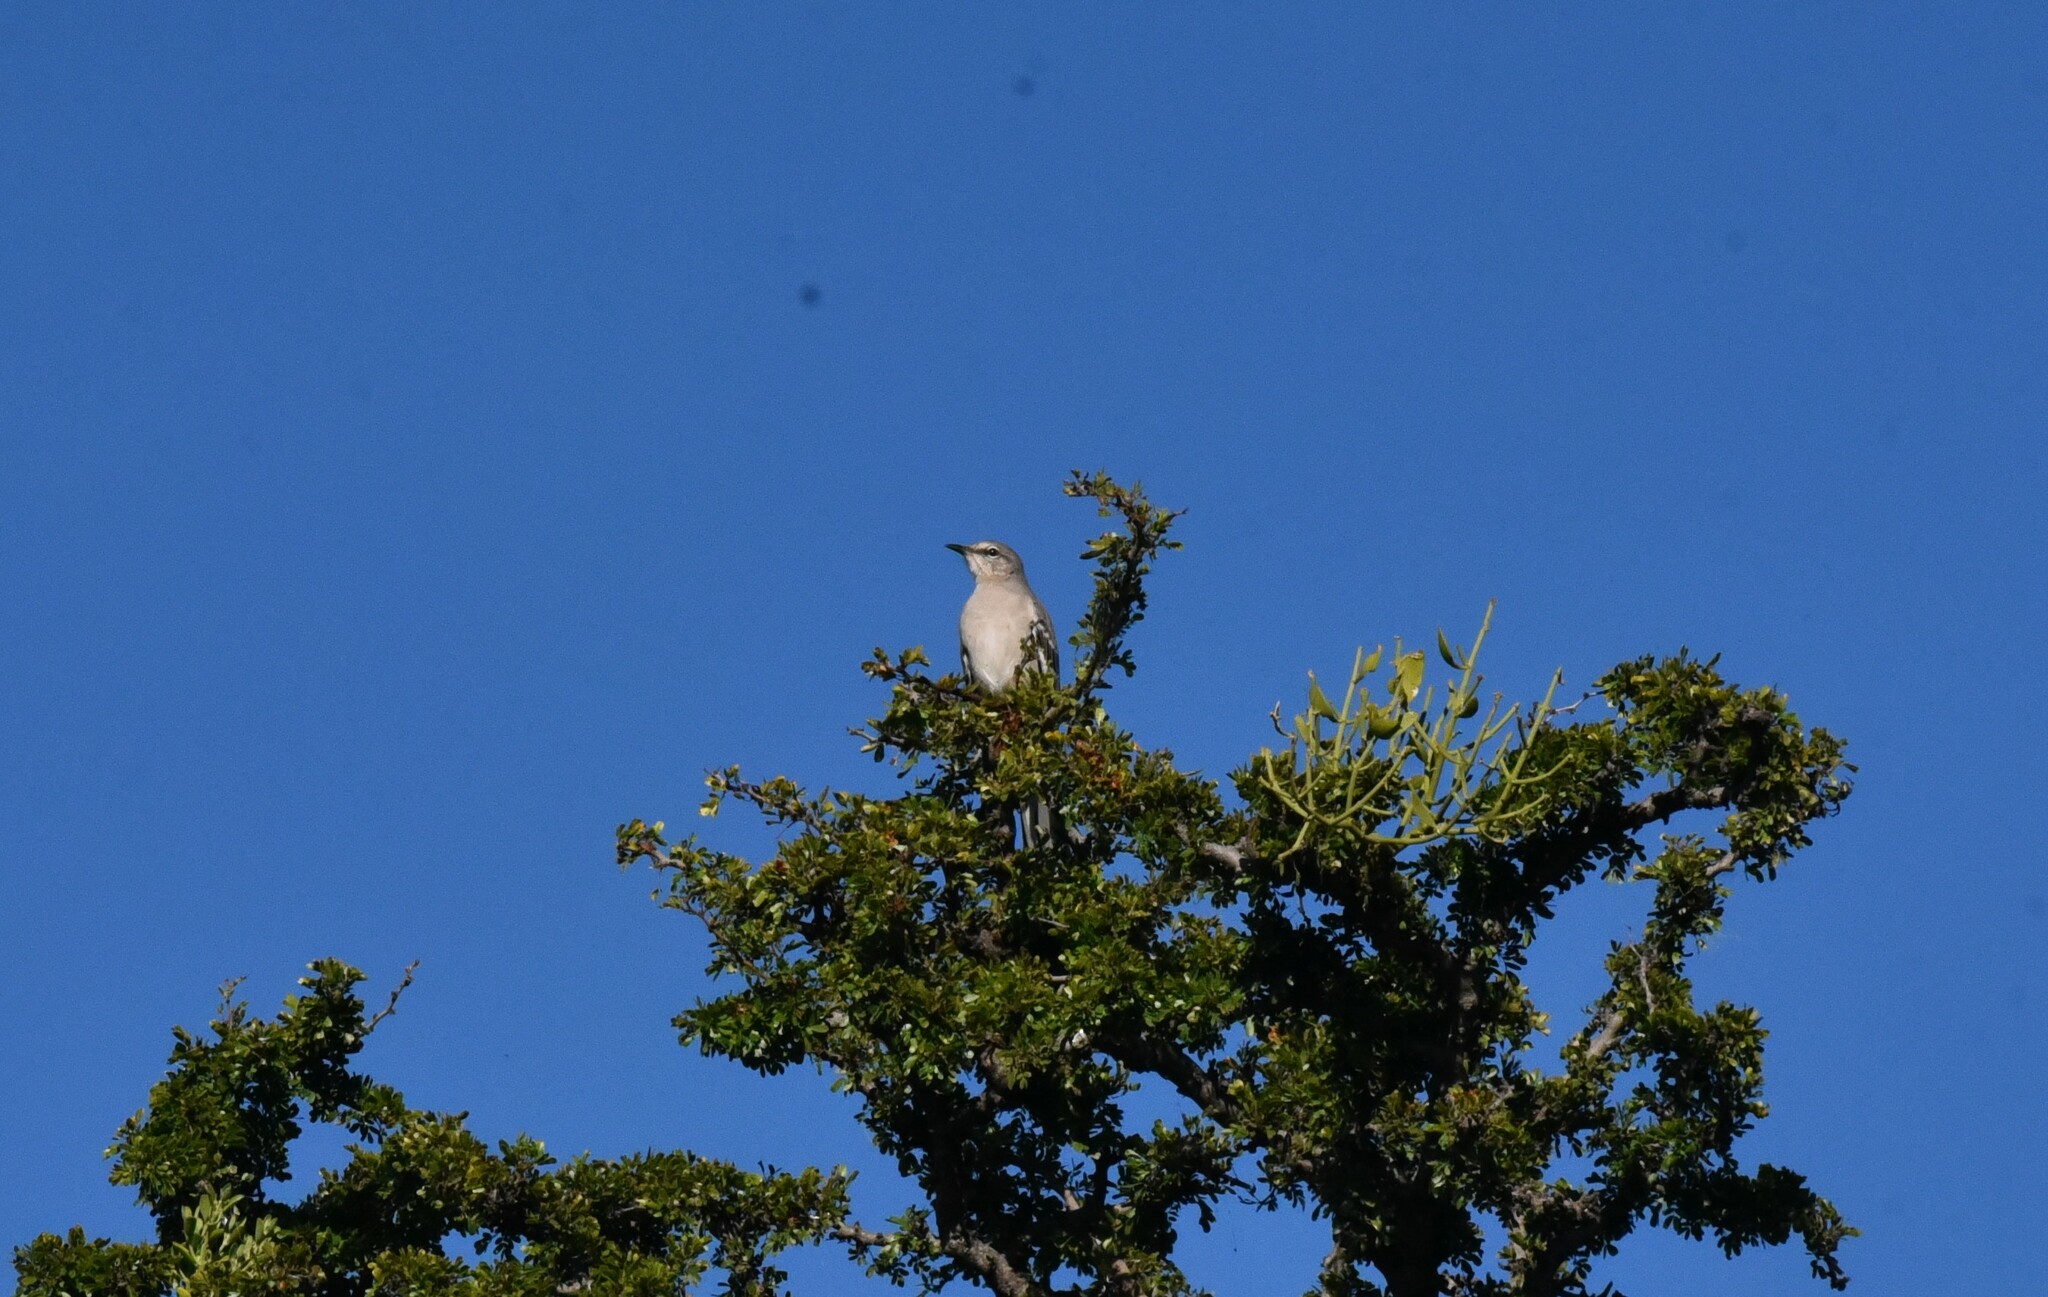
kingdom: Animalia
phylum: Chordata
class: Aves
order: Passeriformes
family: Mimidae
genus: Mimus
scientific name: Mimus polyglottos
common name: Northern mockingbird
